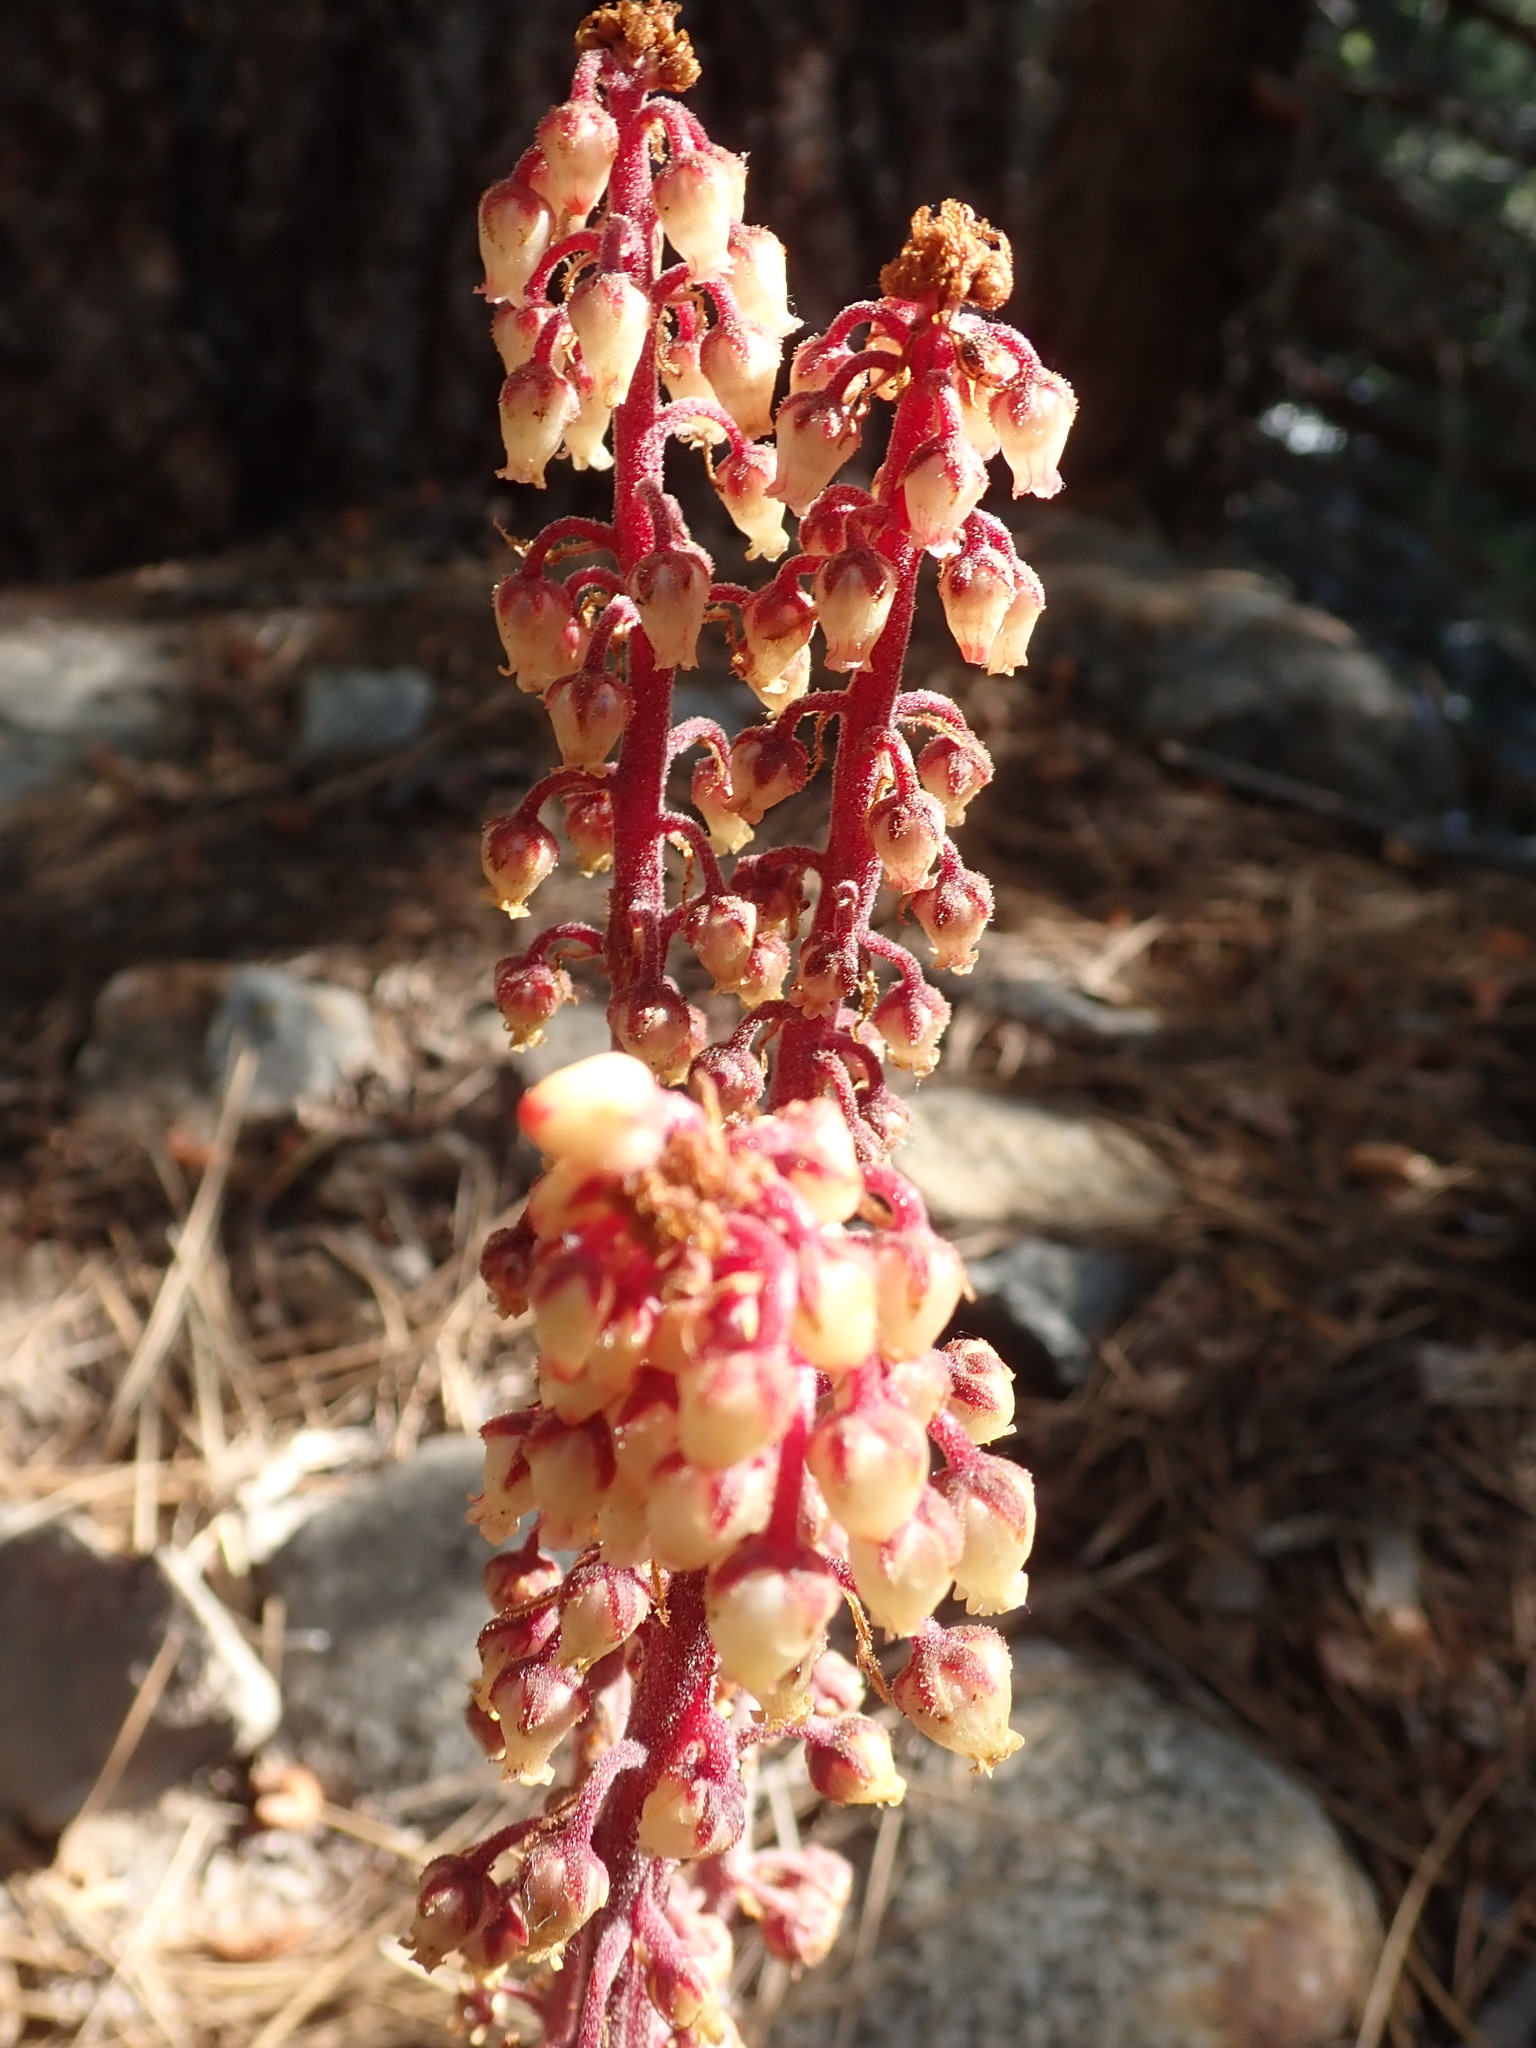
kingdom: Plantae
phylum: Tracheophyta
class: Magnoliopsida
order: Ericales
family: Ericaceae
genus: Pterospora
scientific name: Pterospora andromedea
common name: Giant bird's-nest
